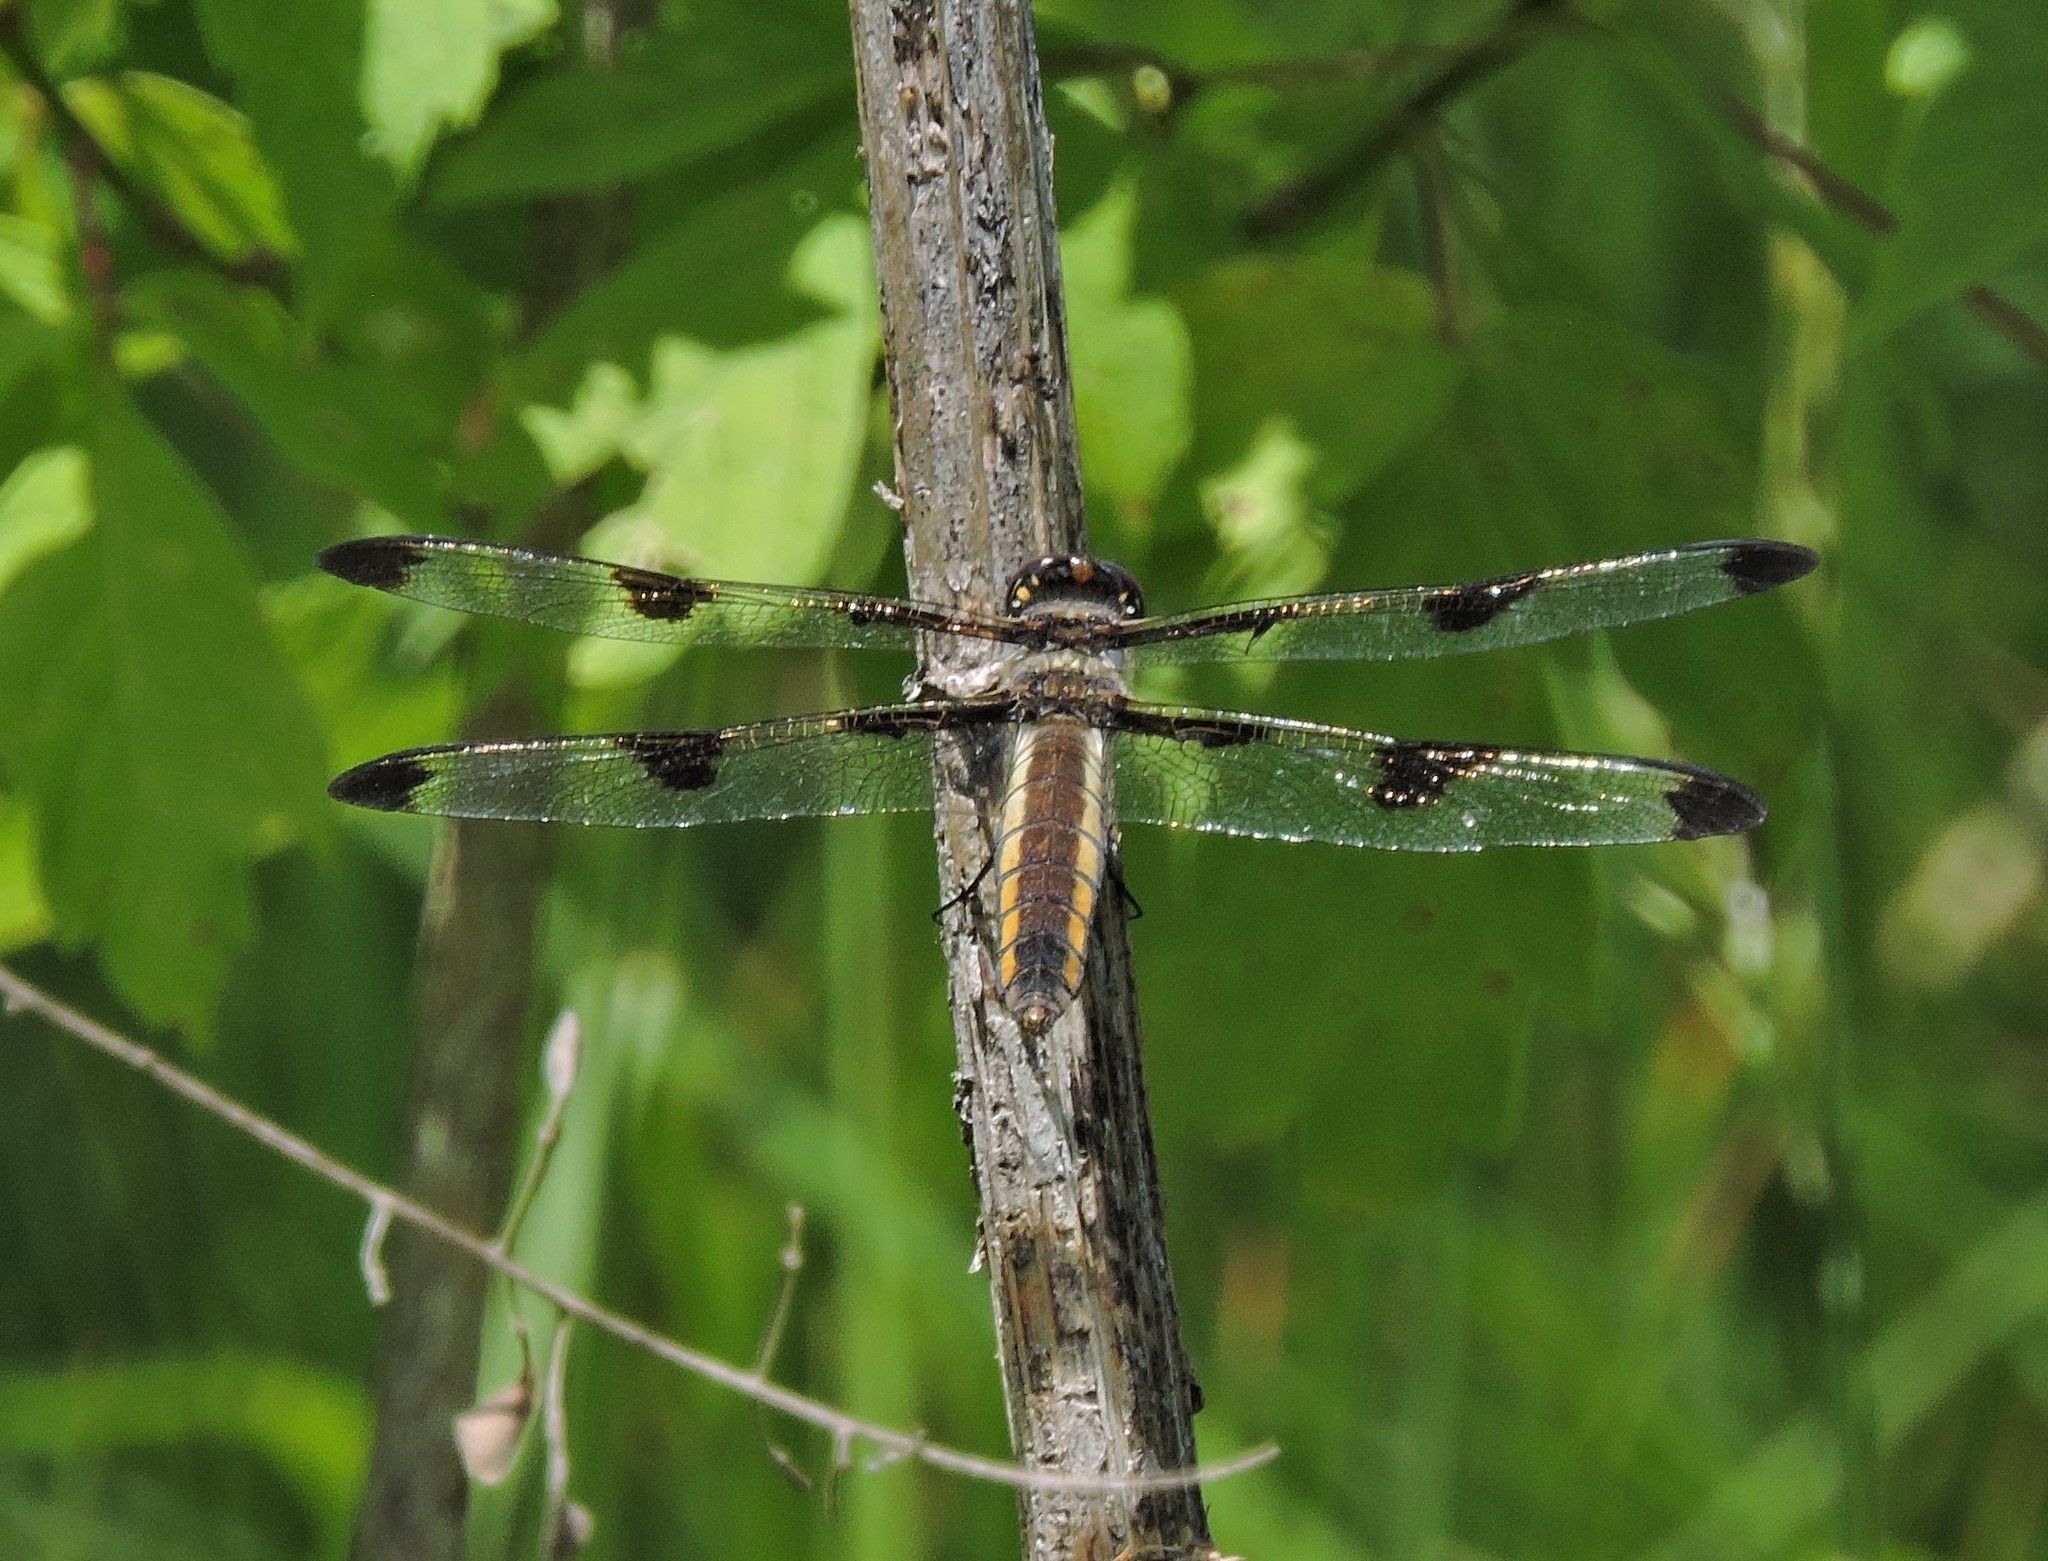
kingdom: Animalia
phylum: Arthropoda
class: Insecta
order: Odonata
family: Libellulidae
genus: Libellula
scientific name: Libellula pulchella
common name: Twelve-spotted skimmer
